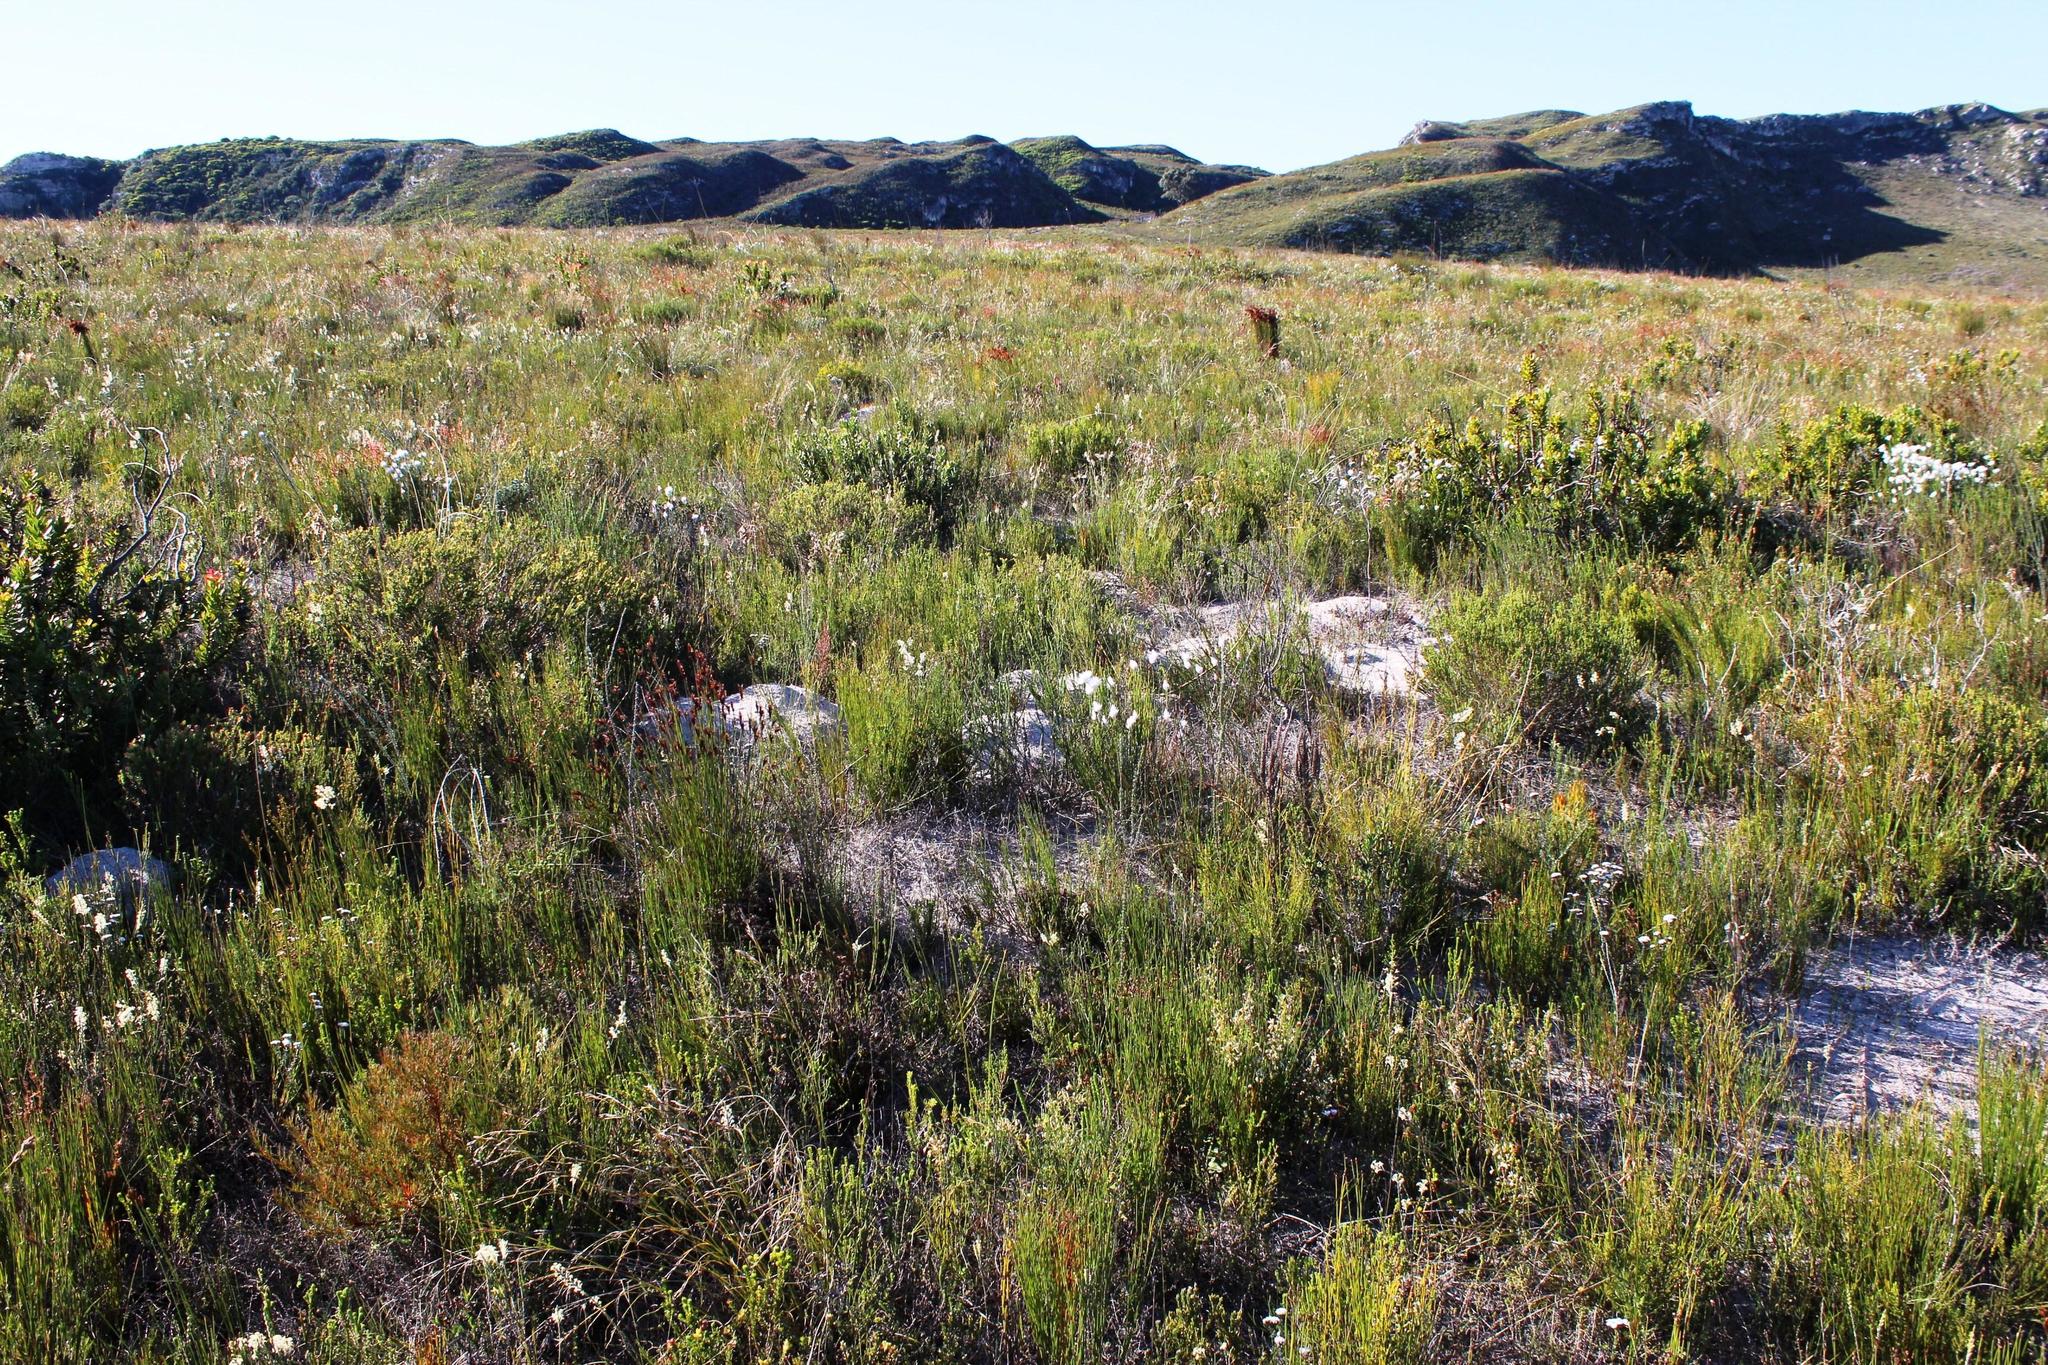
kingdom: Animalia
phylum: Chordata
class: Mammalia
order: Rodentia
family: Bathyergidae
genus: Bathyergus
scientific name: Bathyergus suillus
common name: Cape dune mole rat
